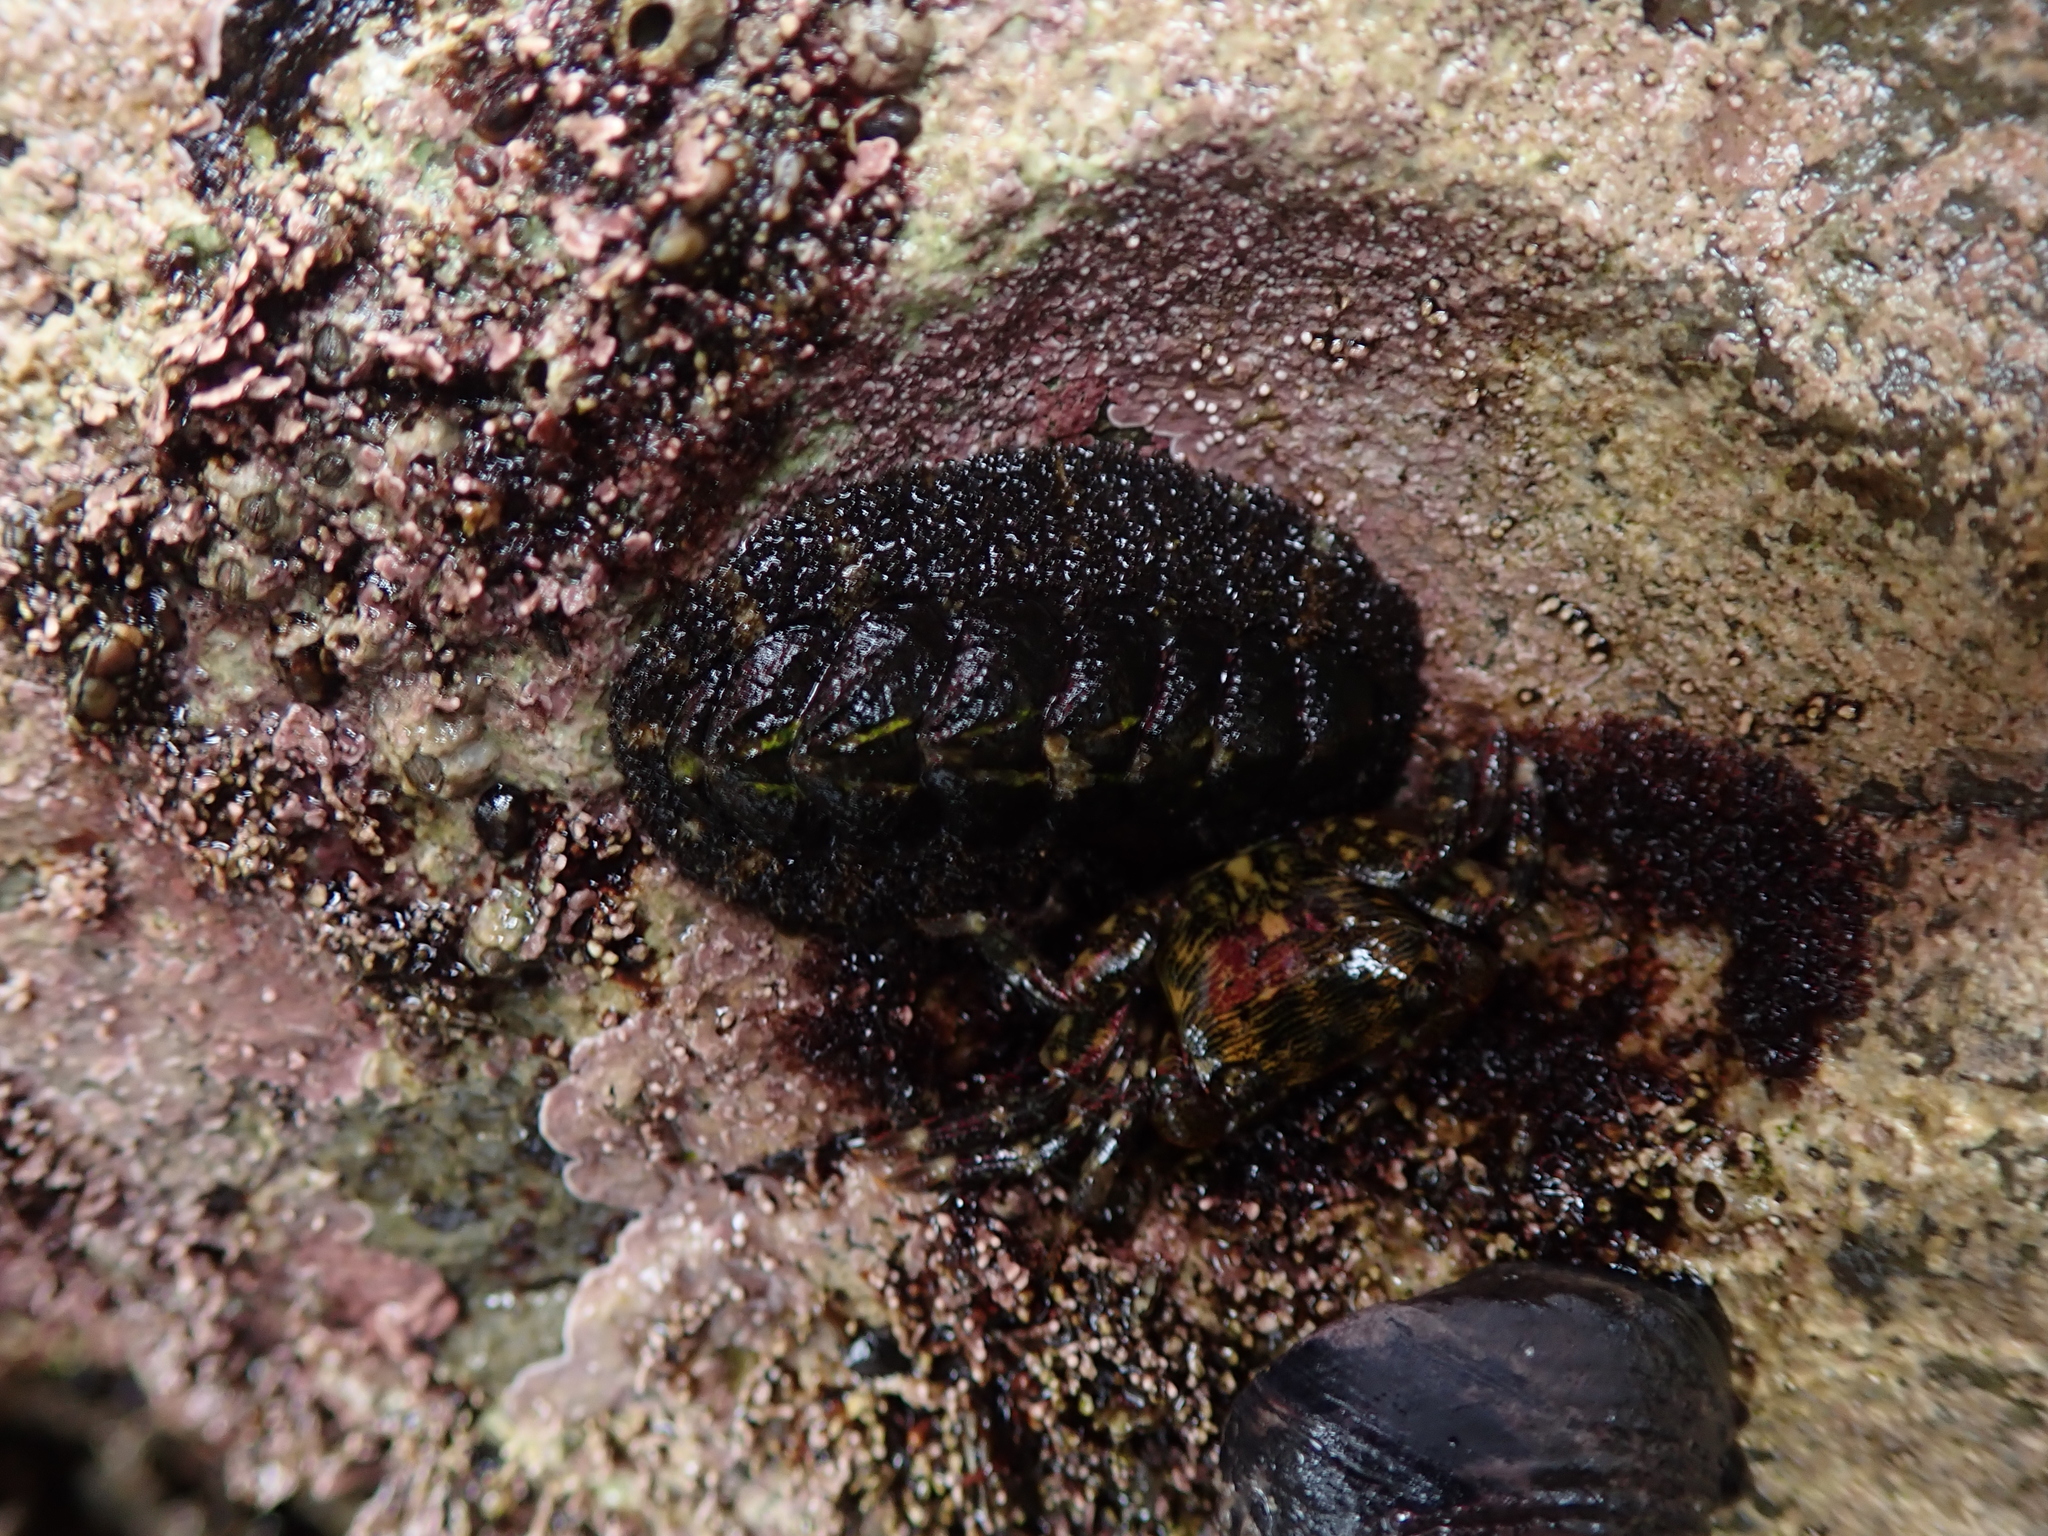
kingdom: Animalia
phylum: Mollusca
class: Polyplacophora
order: Chitonida
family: Tonicellidae
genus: Nuttallina
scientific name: Nuttallina californica
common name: California nuttall chiton
